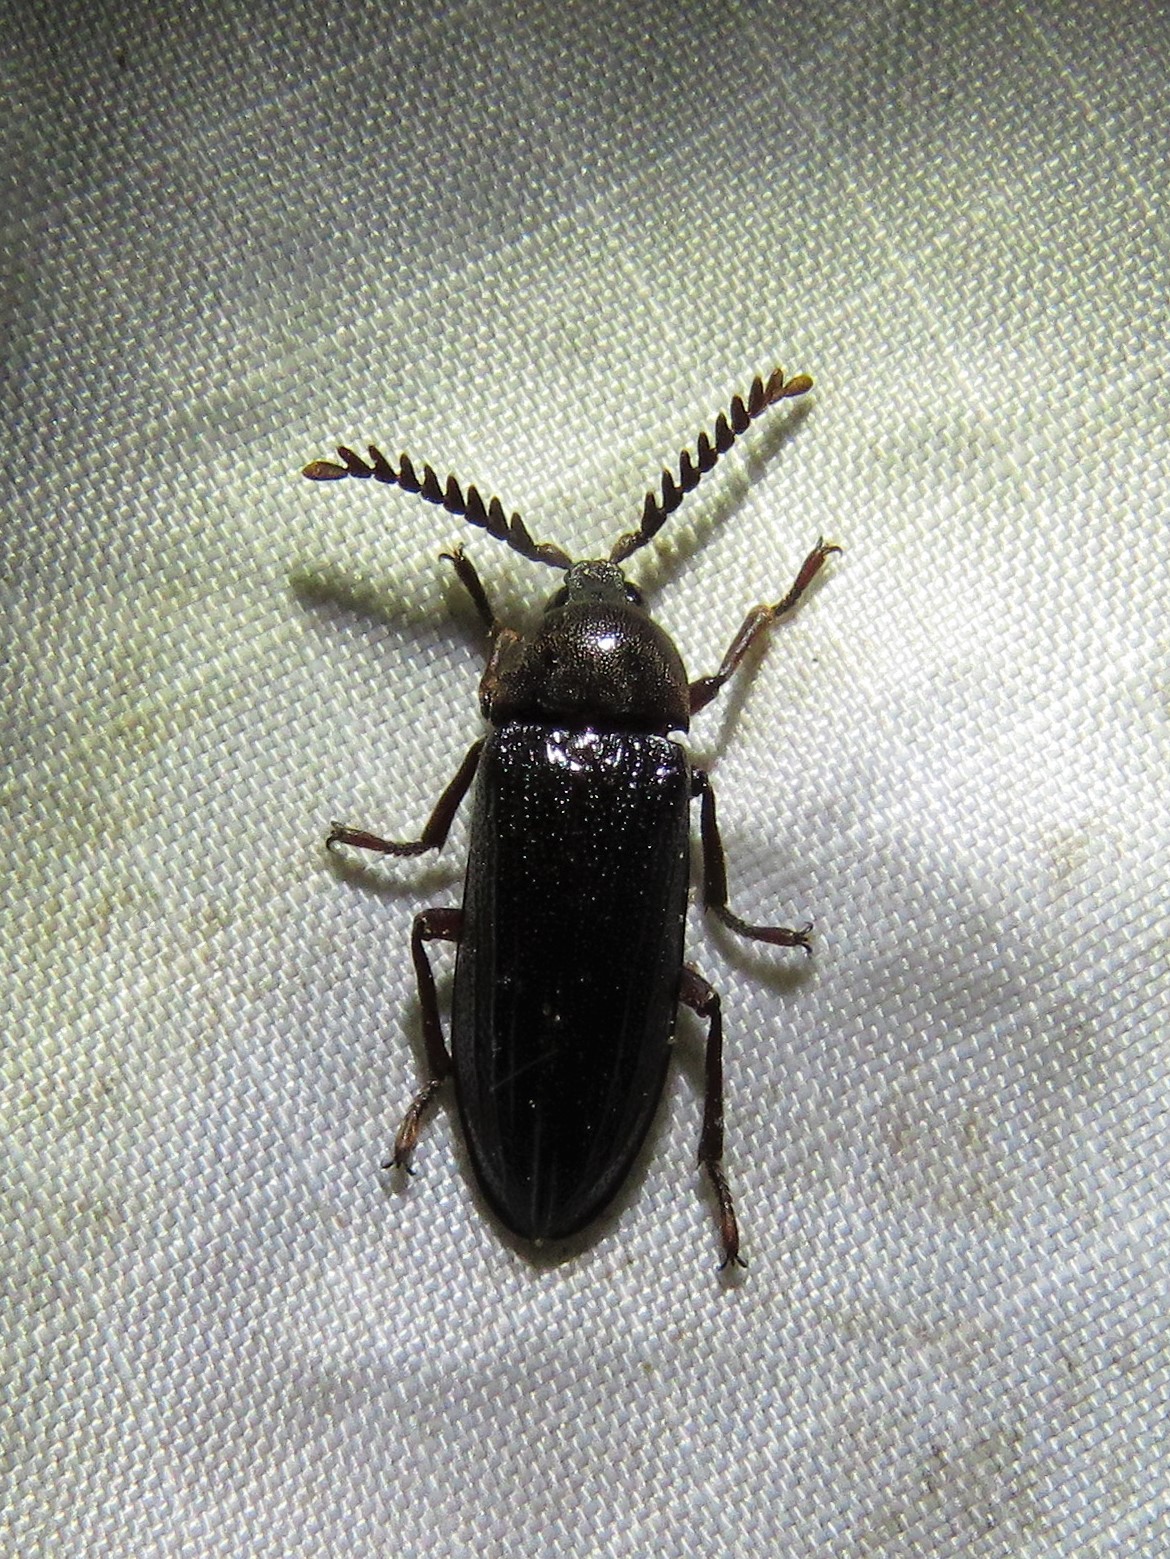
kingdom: Animalia
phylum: Arthropoda
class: Insecta
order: Coleoptera
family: Callirhipidae
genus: Zenoa
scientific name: Zenoa picea
